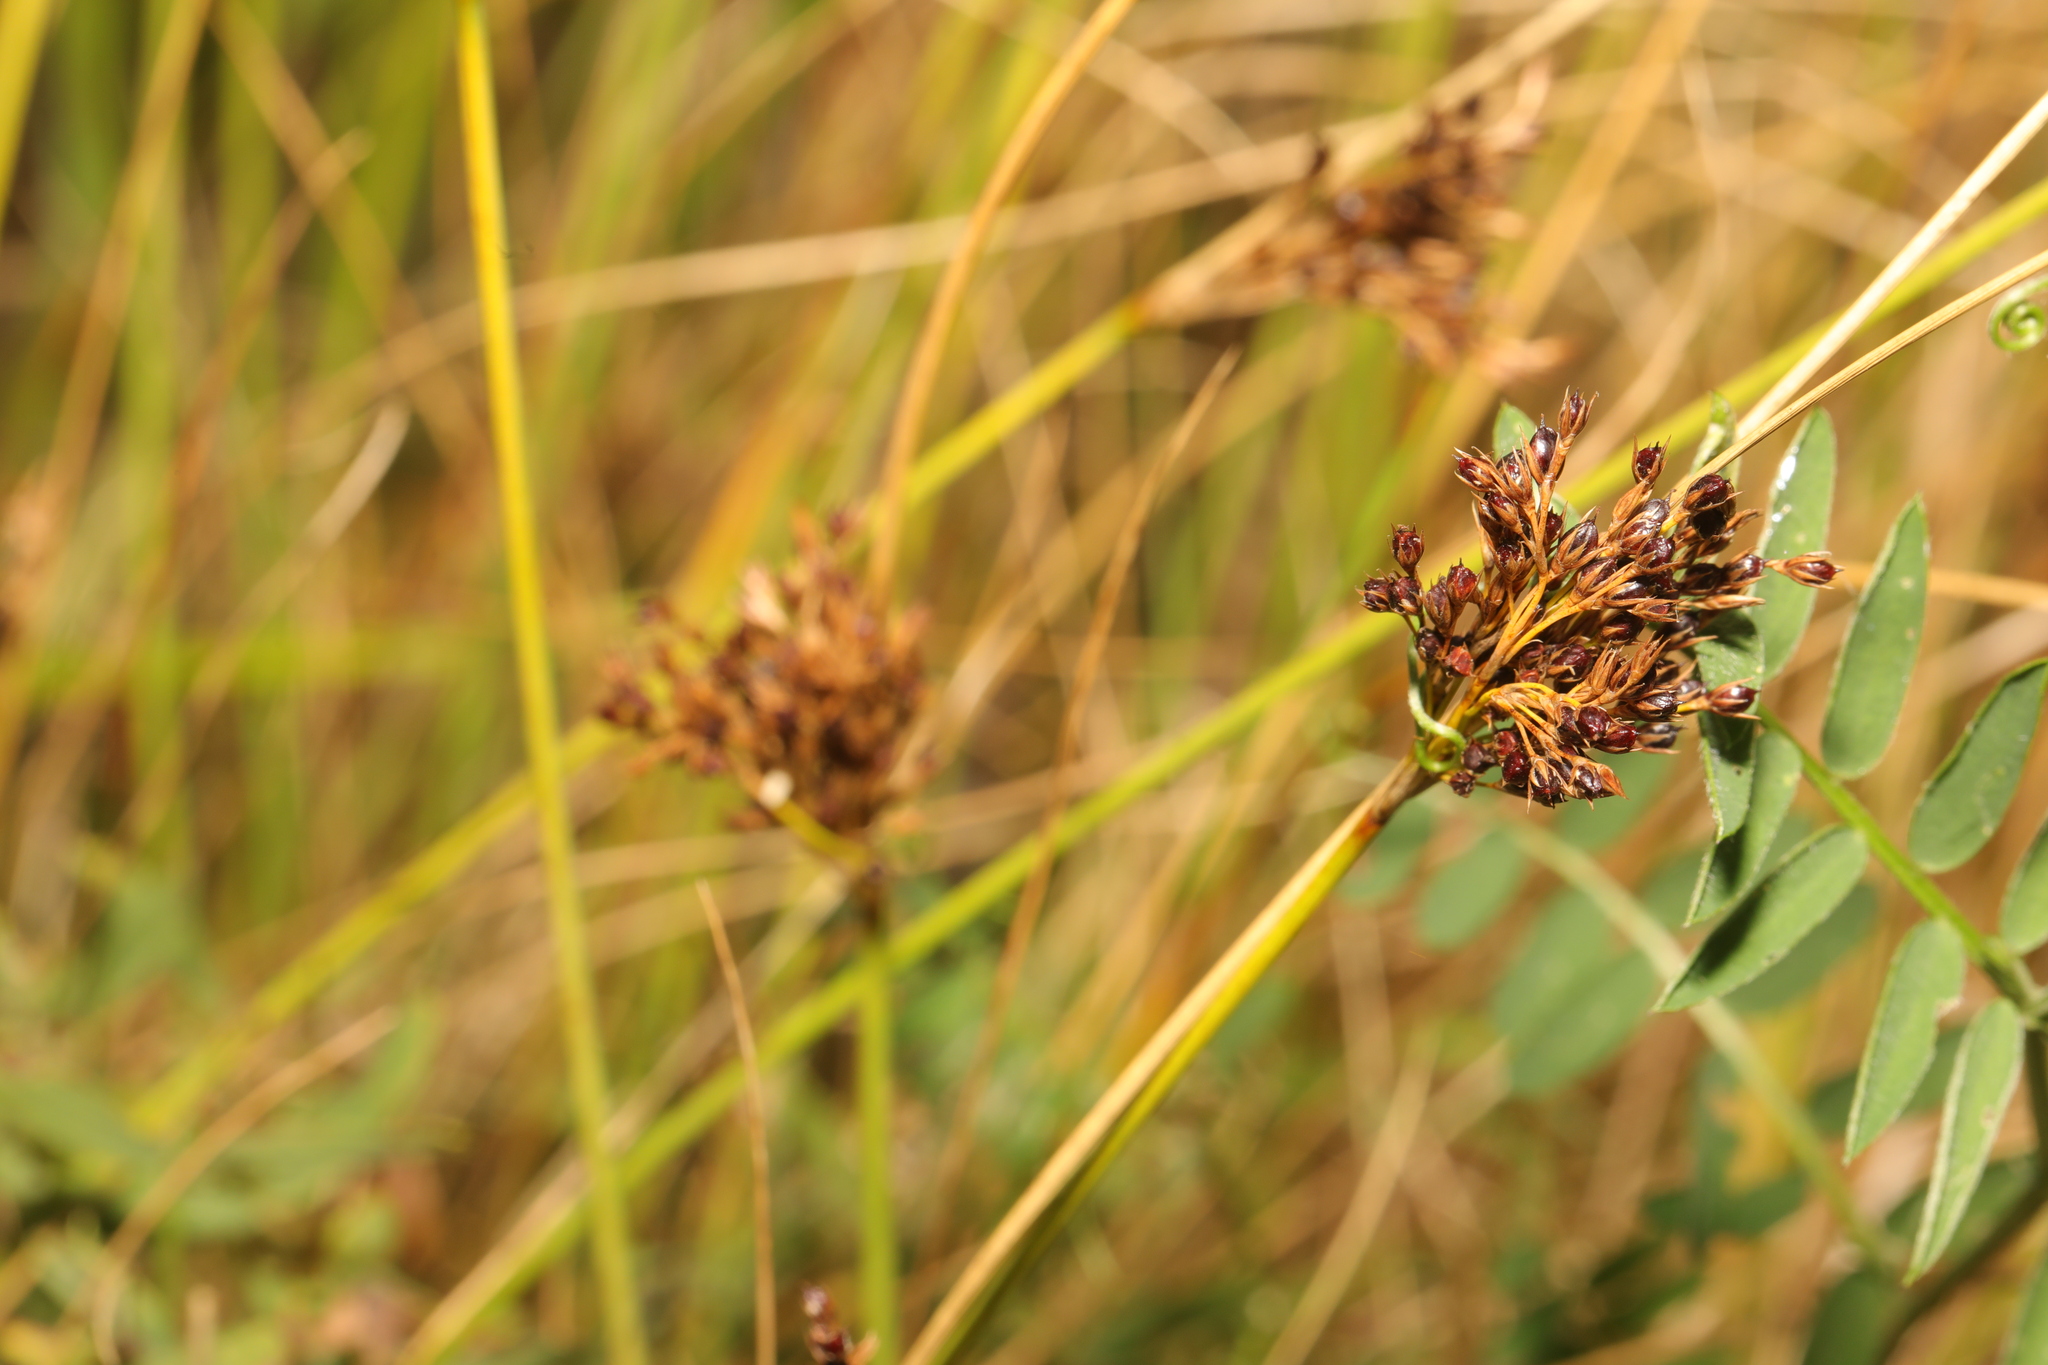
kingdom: Plantae
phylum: Tracheophyta
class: Liliopsida
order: Poales
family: Juncaceae
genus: Juncus
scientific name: Juncus inflexus
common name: Hard rush
